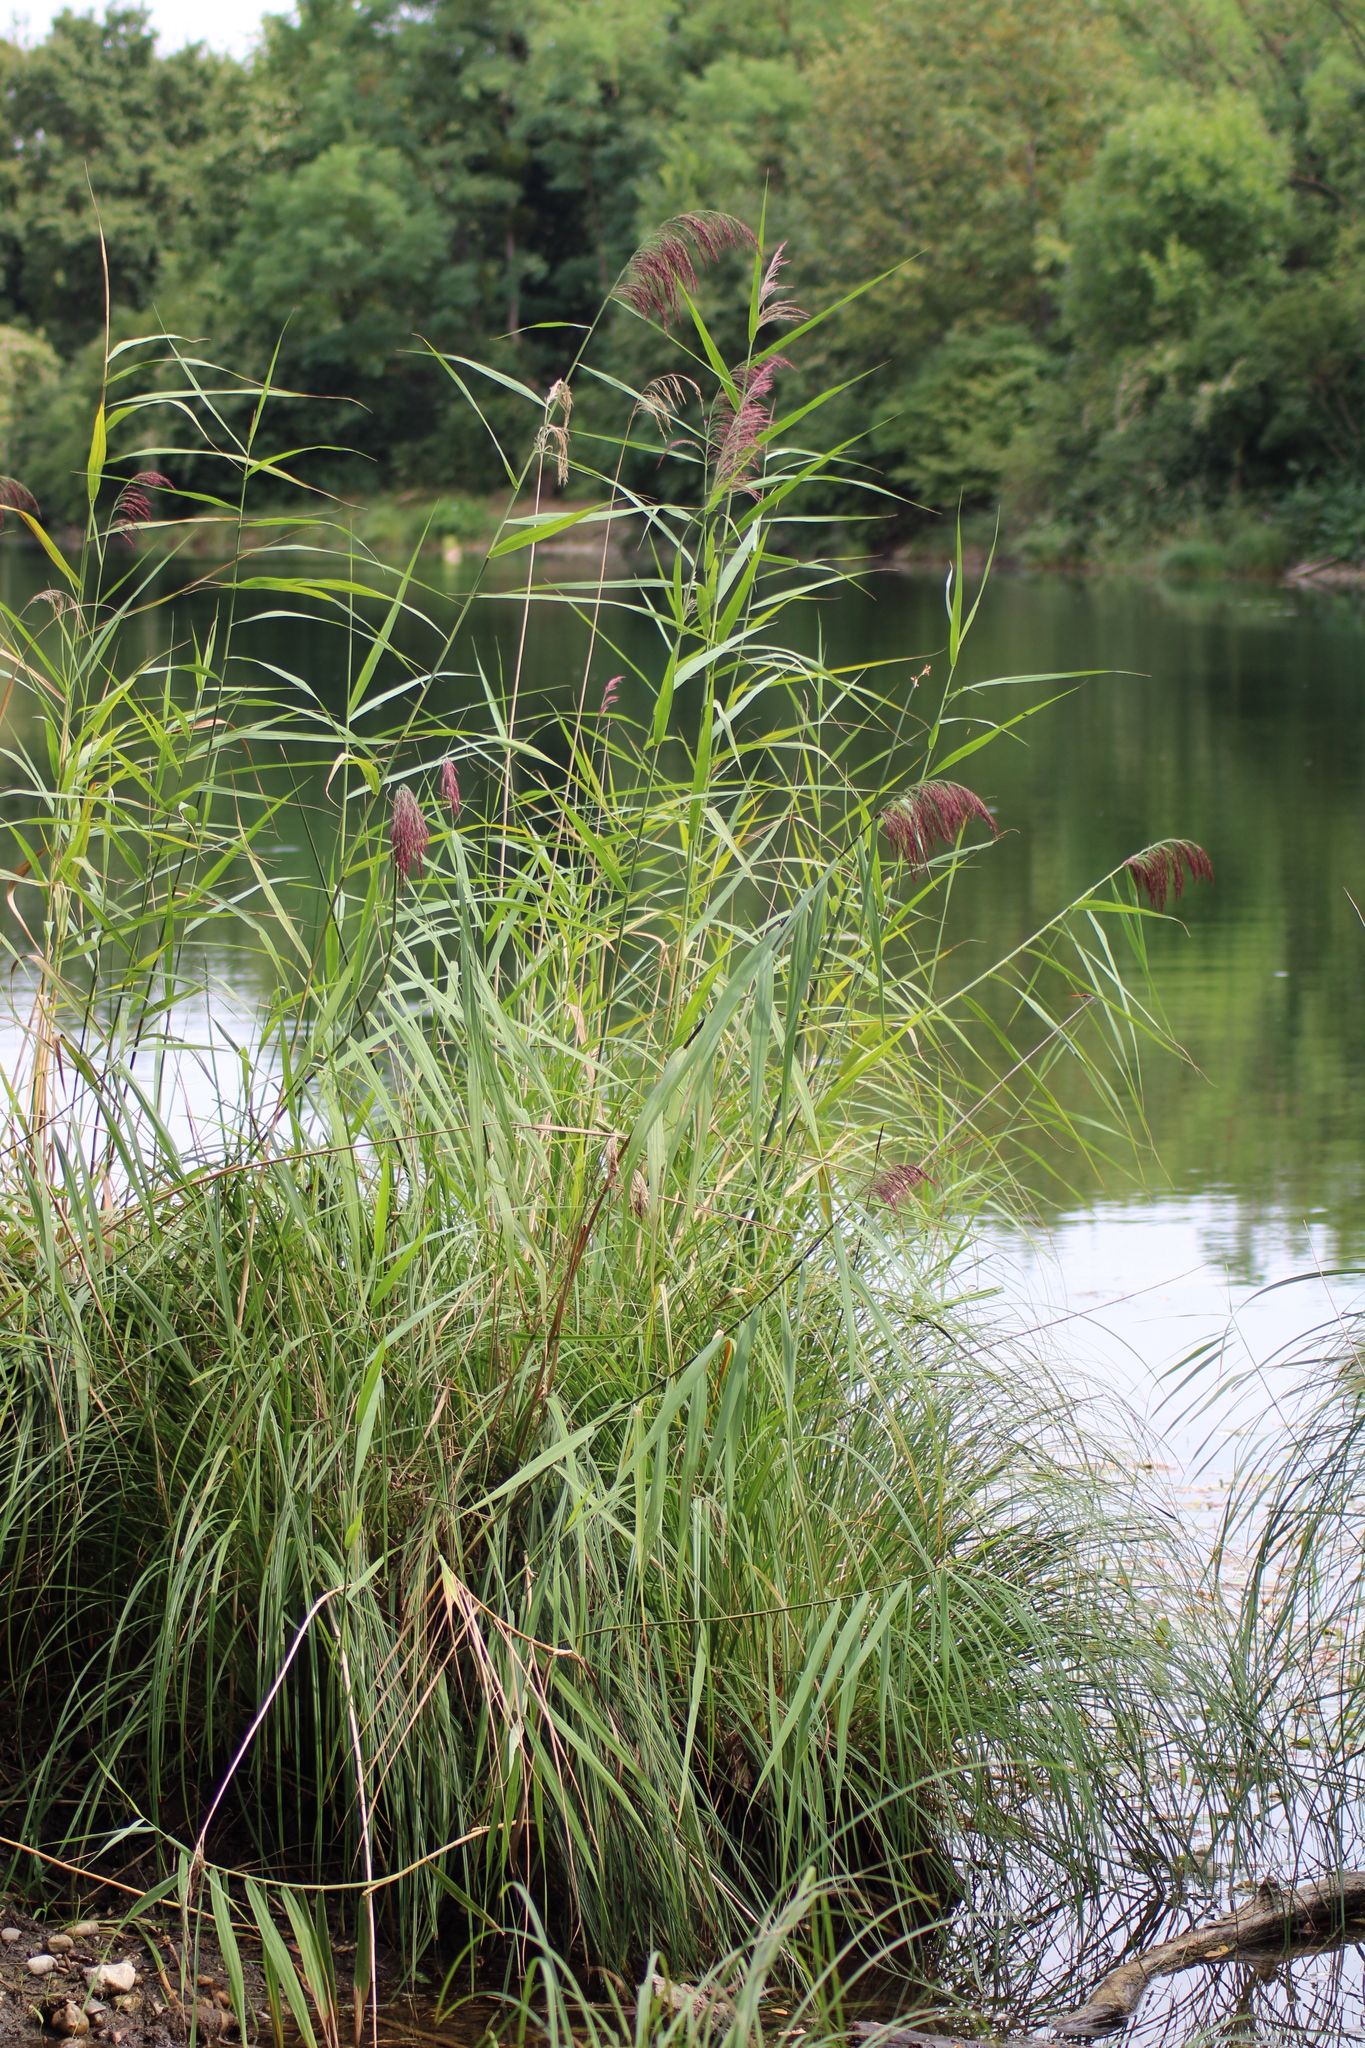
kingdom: Plantae
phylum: Tracheophyta
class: Liliopsida
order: Poales
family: Poaceae
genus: Phragmites
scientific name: Phragmites australis
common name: Common reed
